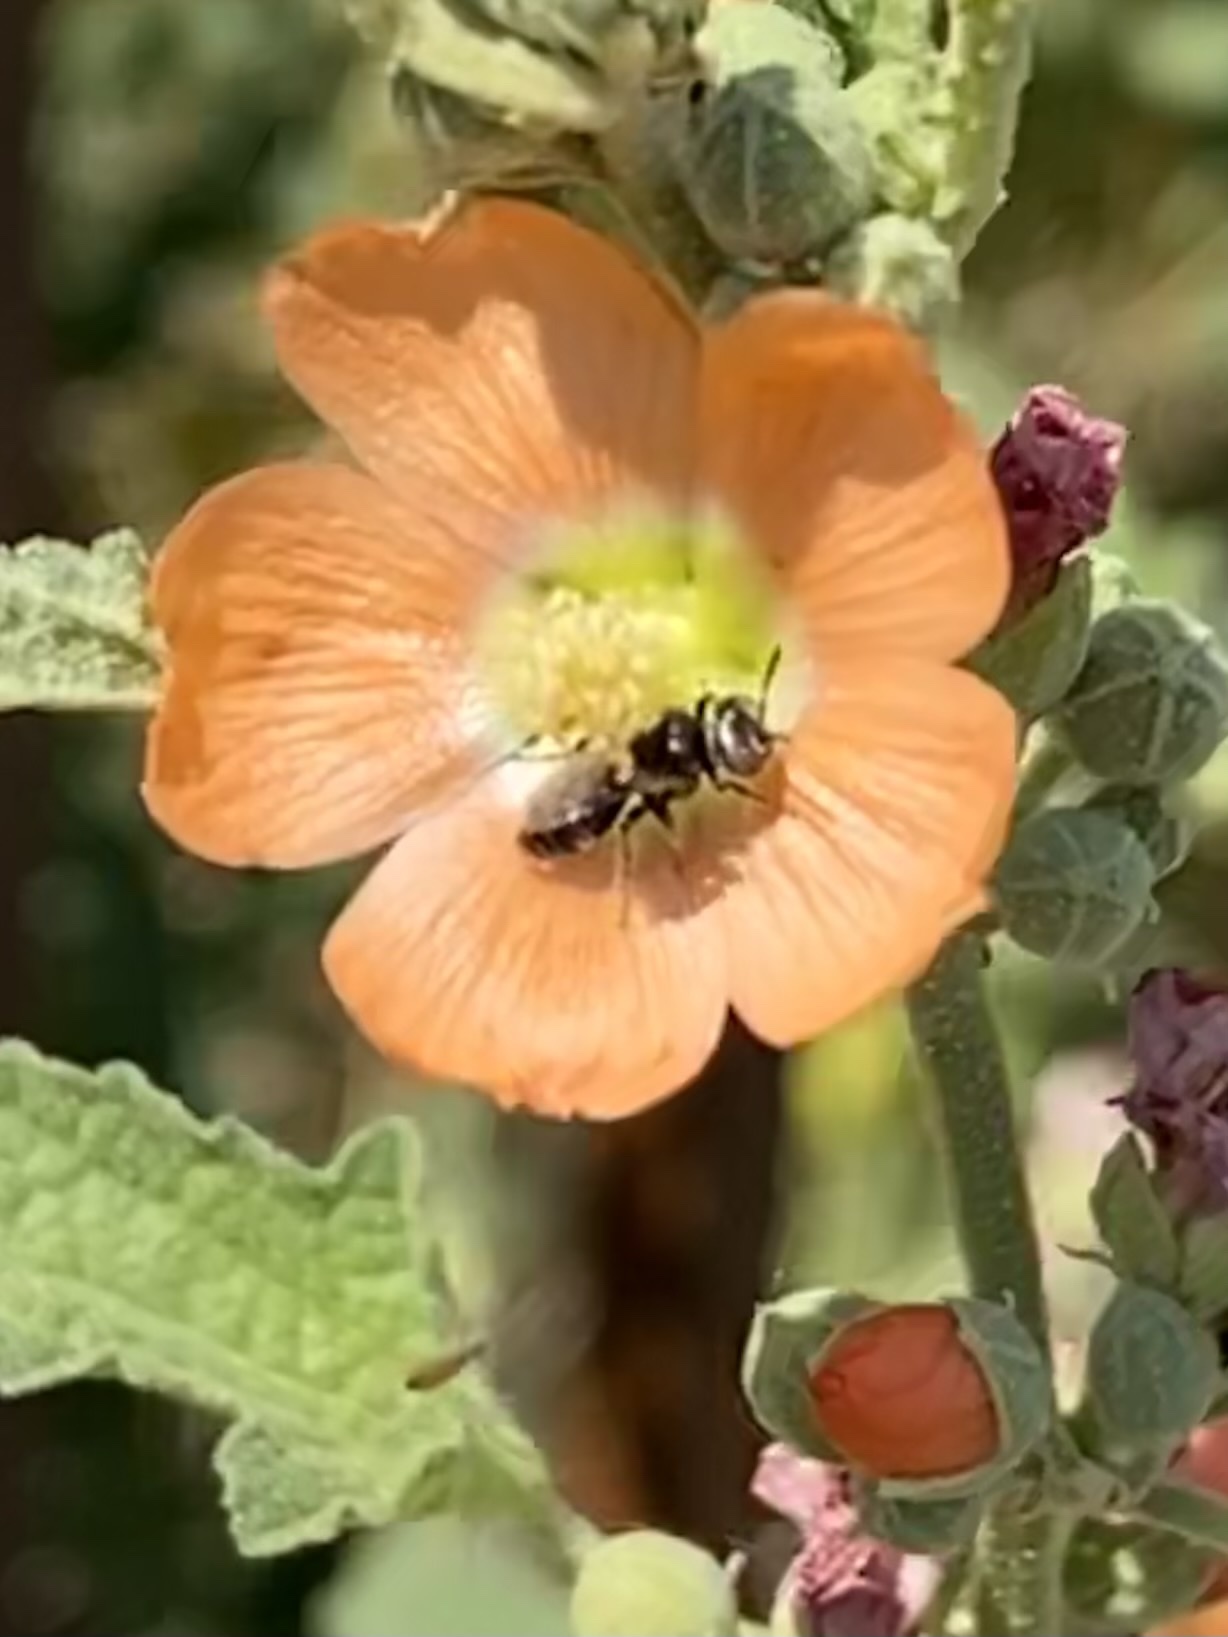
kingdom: Animalia
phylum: Arthropoda
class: Insecta
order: Hymenoptera
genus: Macroteropsis
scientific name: Macroteropsis
